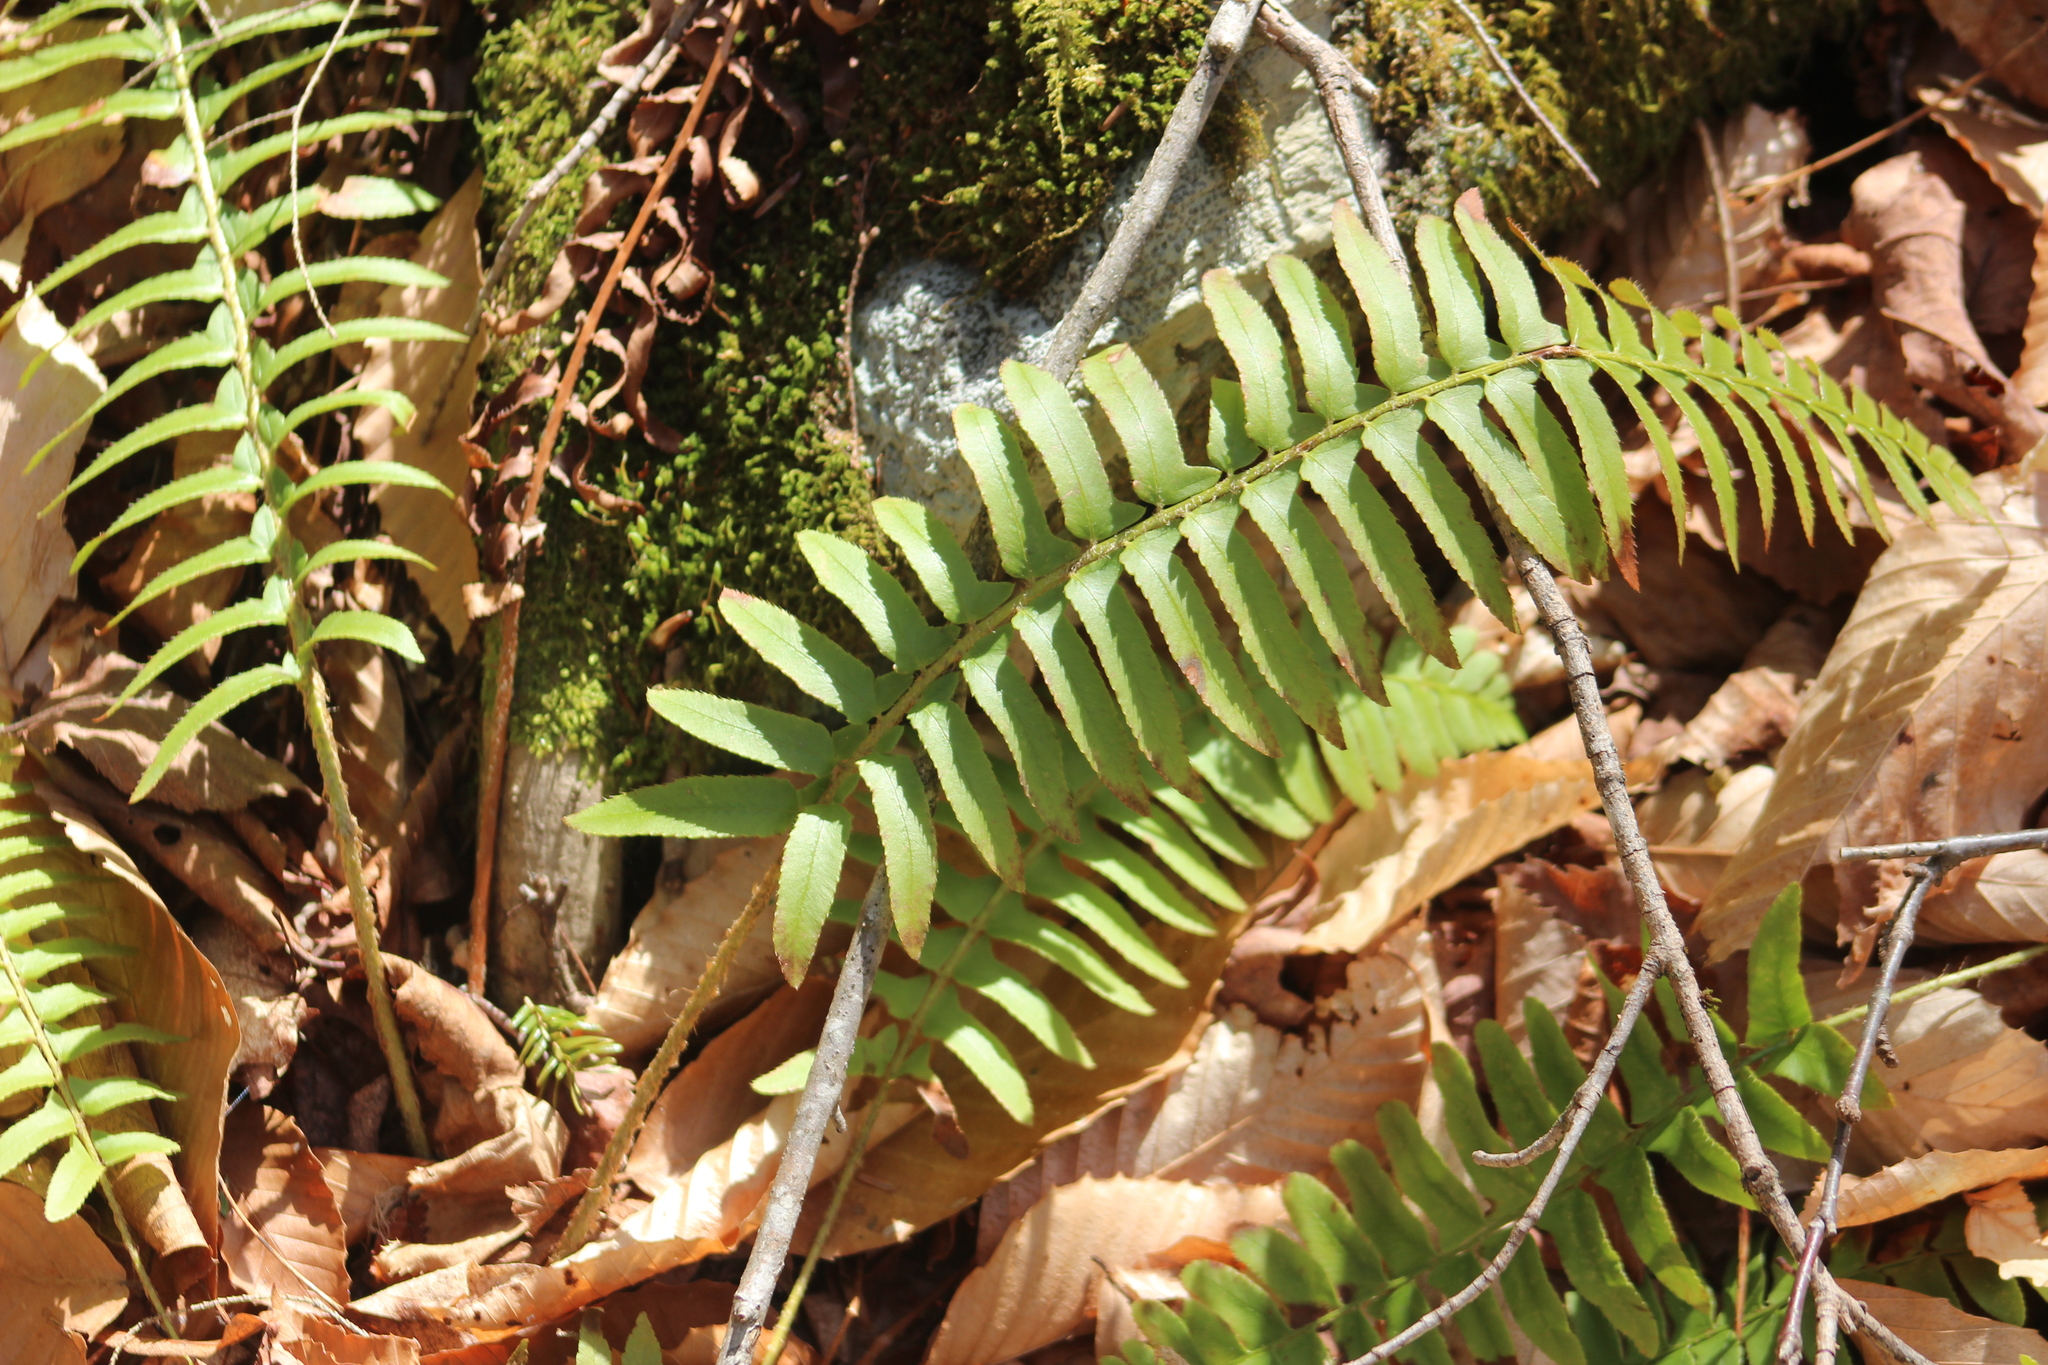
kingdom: Plantae
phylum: Tracheophyta
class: Polypodiopsida
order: Polypodiales
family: Dryopteridaceae
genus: Polystichum
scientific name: Polystichum acrostichoides
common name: Christmas fern
